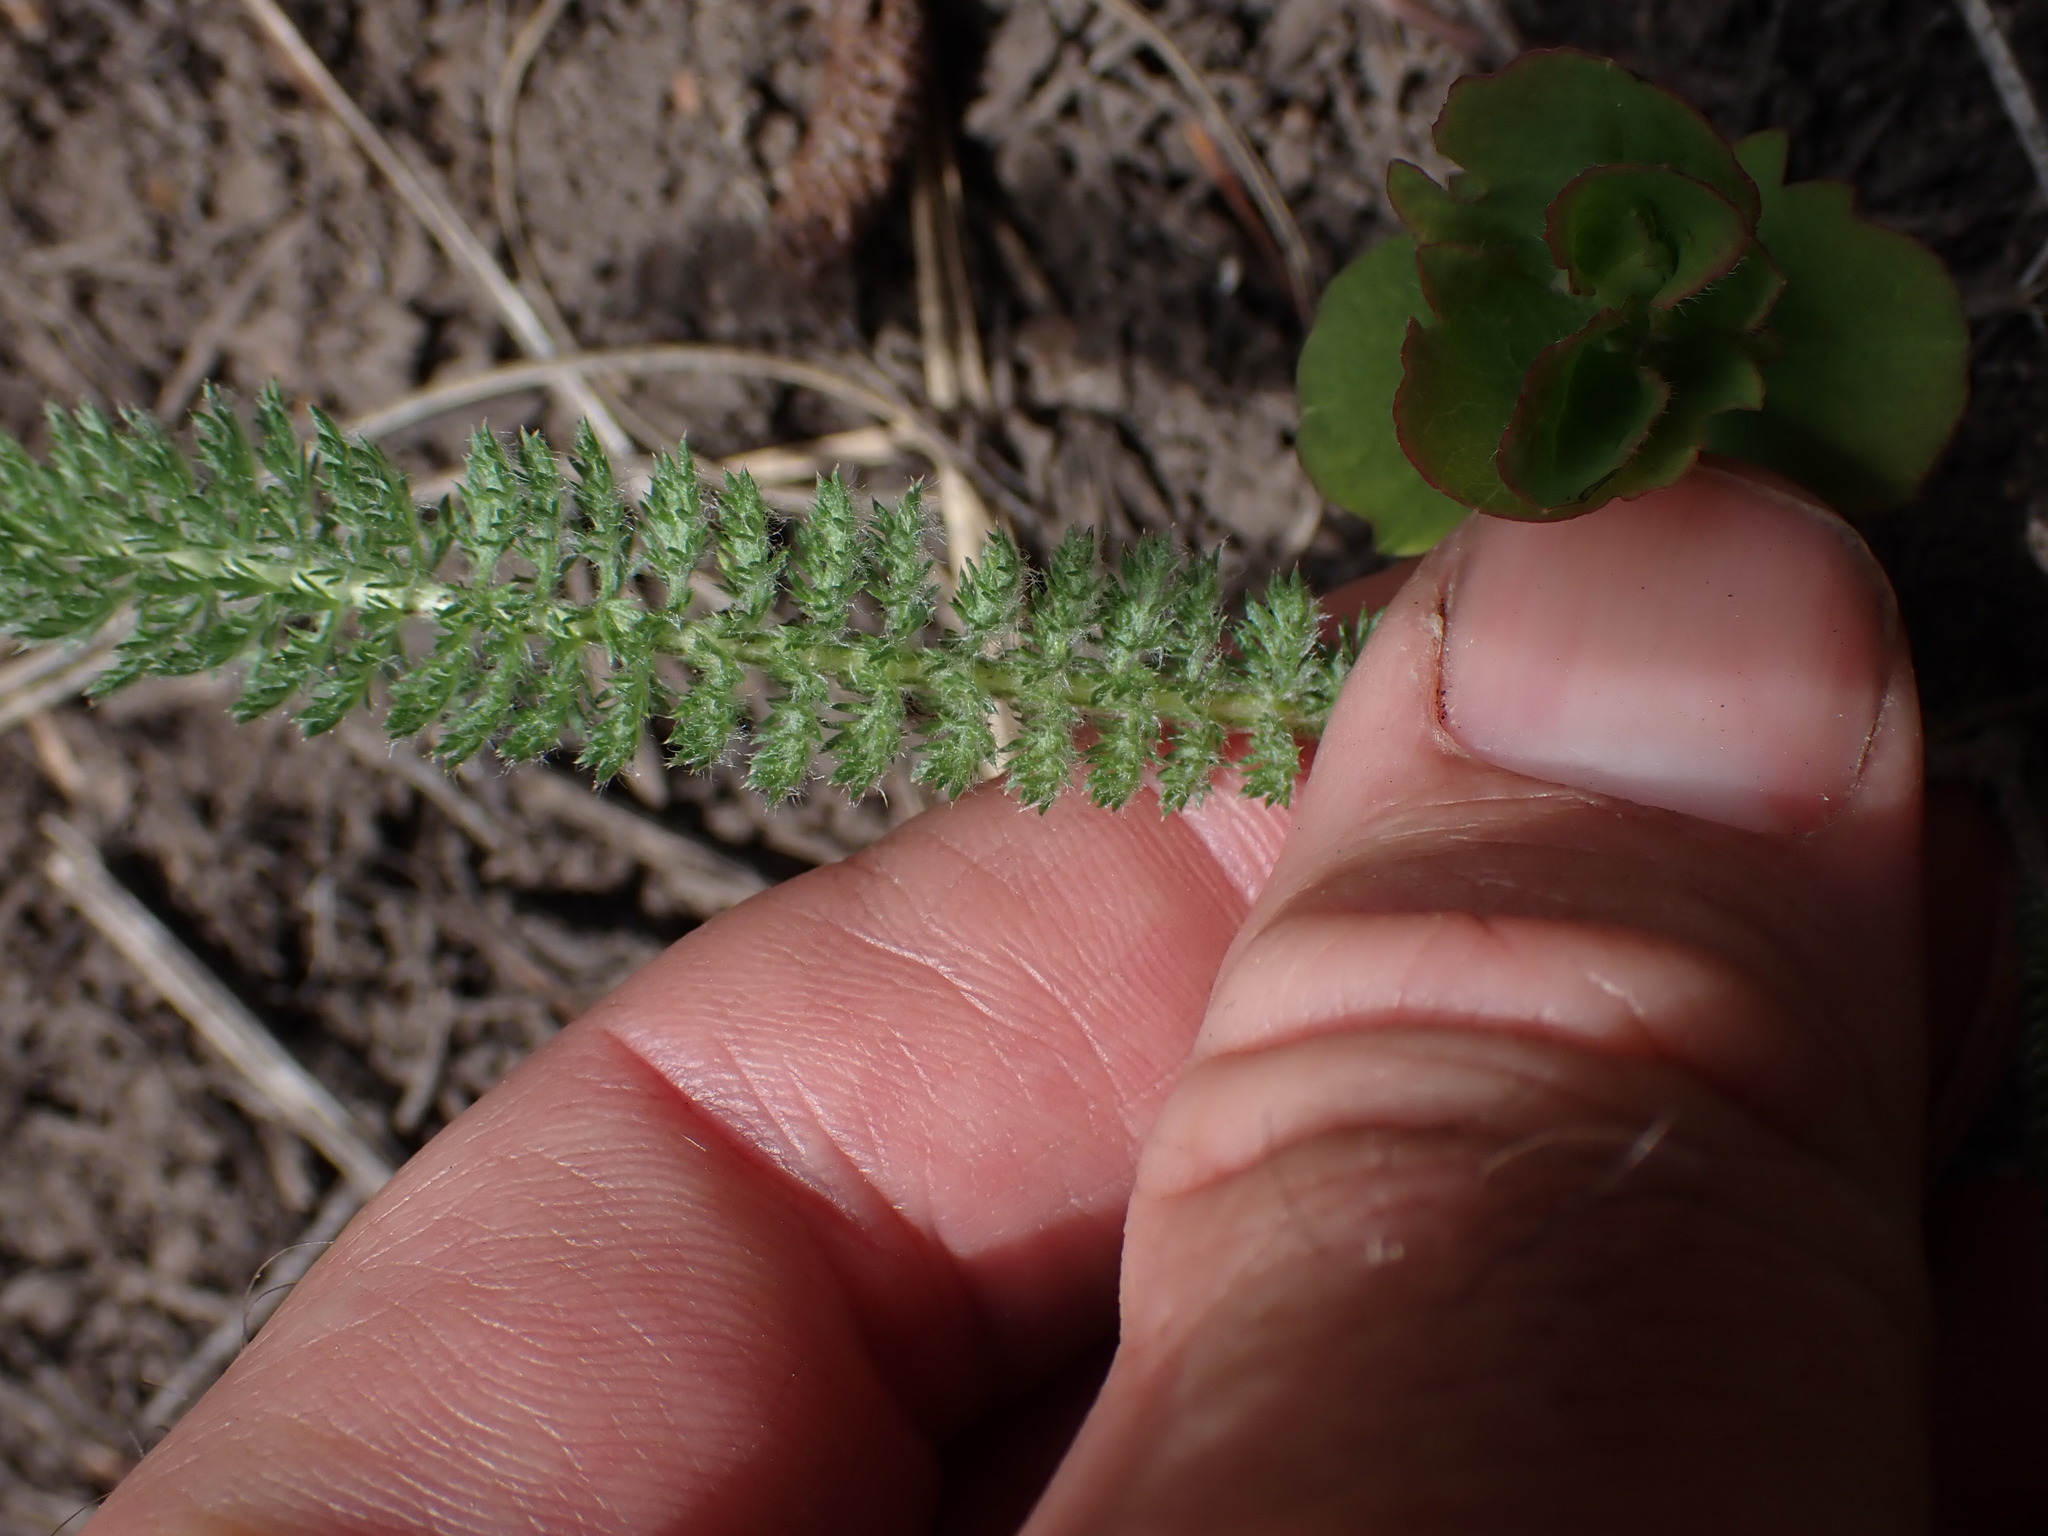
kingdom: Plantae
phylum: Tracheophyta
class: Magnoliopsida
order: Asterales
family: Asteraceae
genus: Achillea
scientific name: Achillea millefolium
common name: Yarrow
